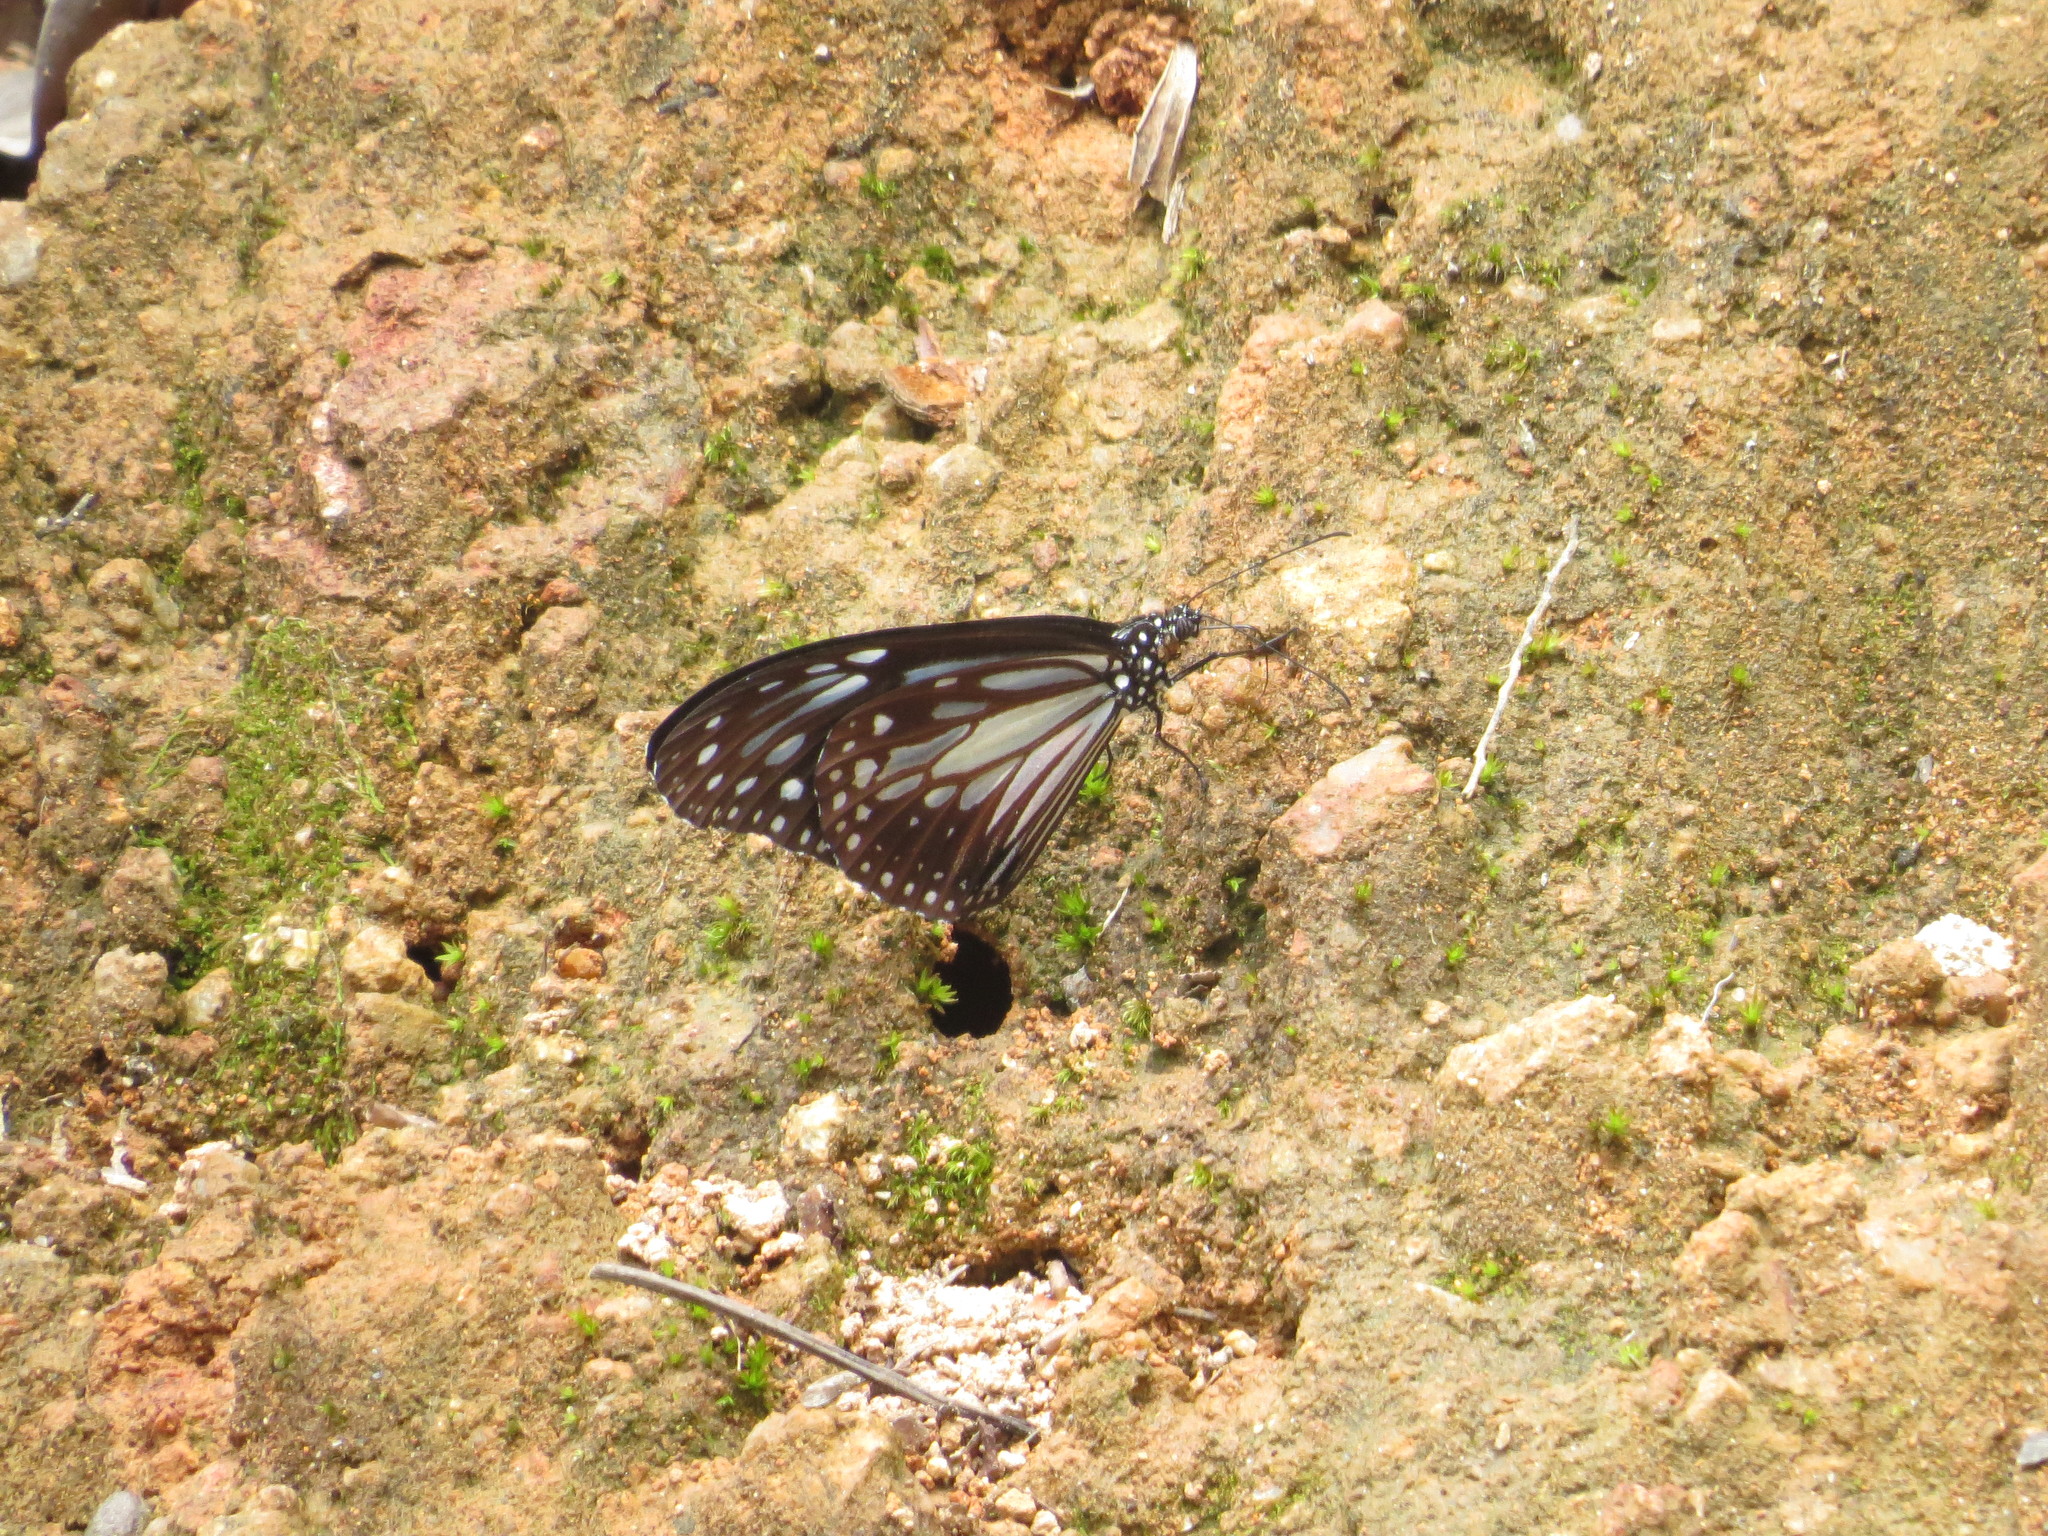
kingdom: Animalia
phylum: Arthropoda
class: Insecta
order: Lepidoptera
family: Nymphalidae
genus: Parantica
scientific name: Parantica melaneus
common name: Chocolate tiger
